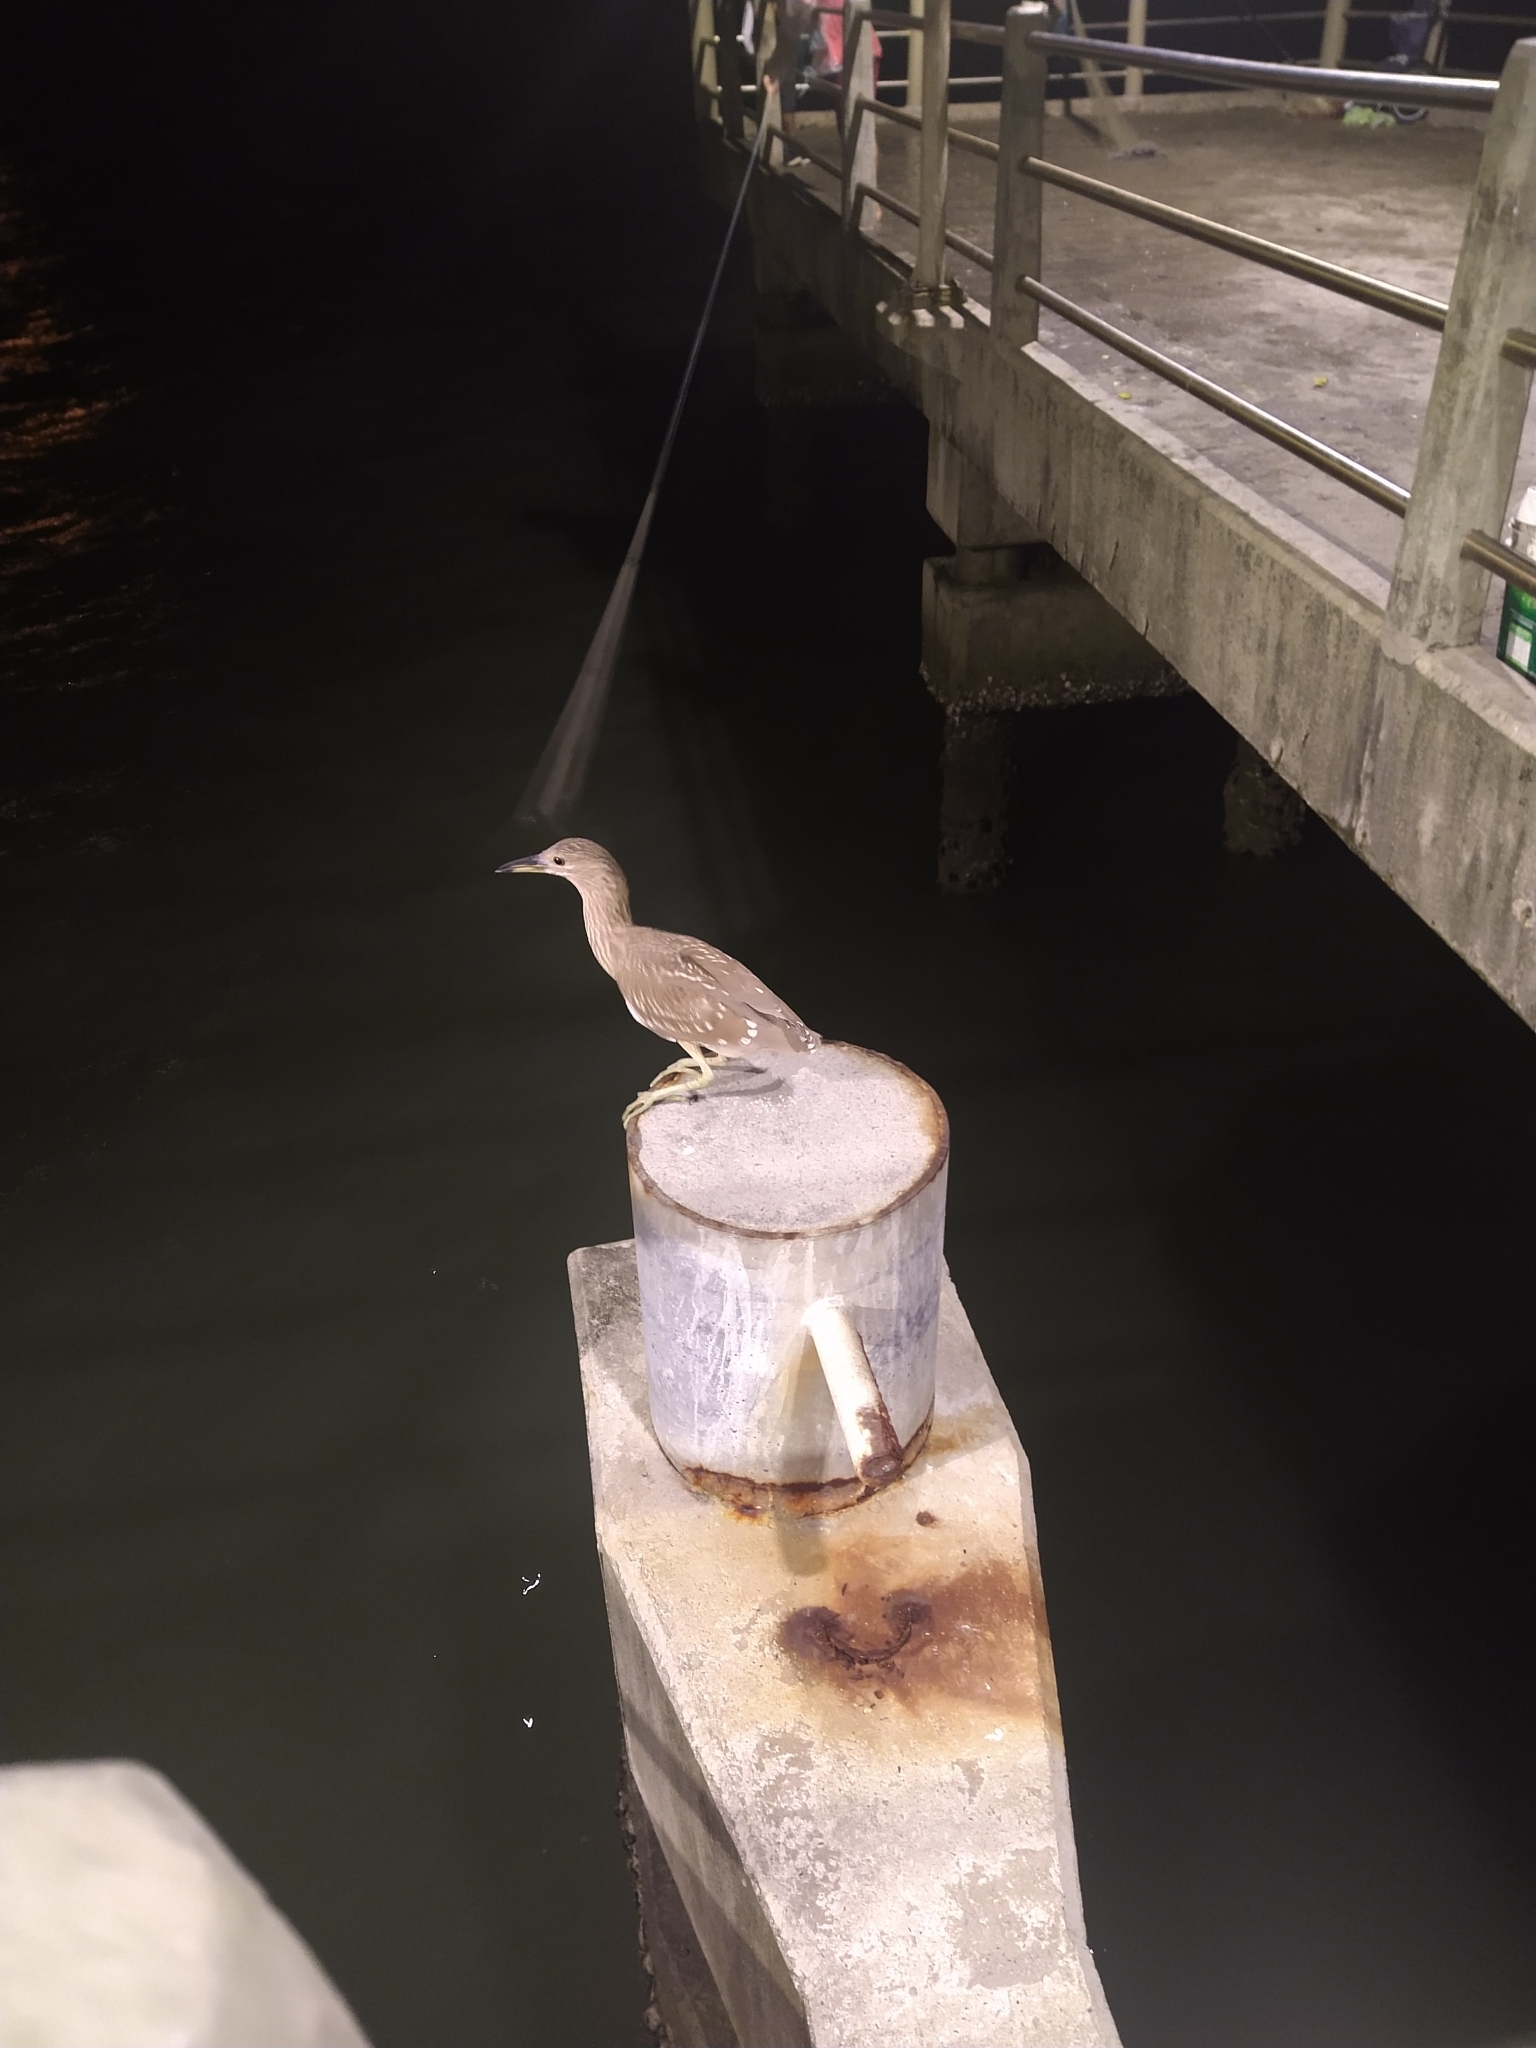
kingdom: Animalia
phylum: Chordata
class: Aves
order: Pelecaniformes
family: Ardeidae
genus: Nycticorax
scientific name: Nycticorax nycticorax
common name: Black-crowned night heron
